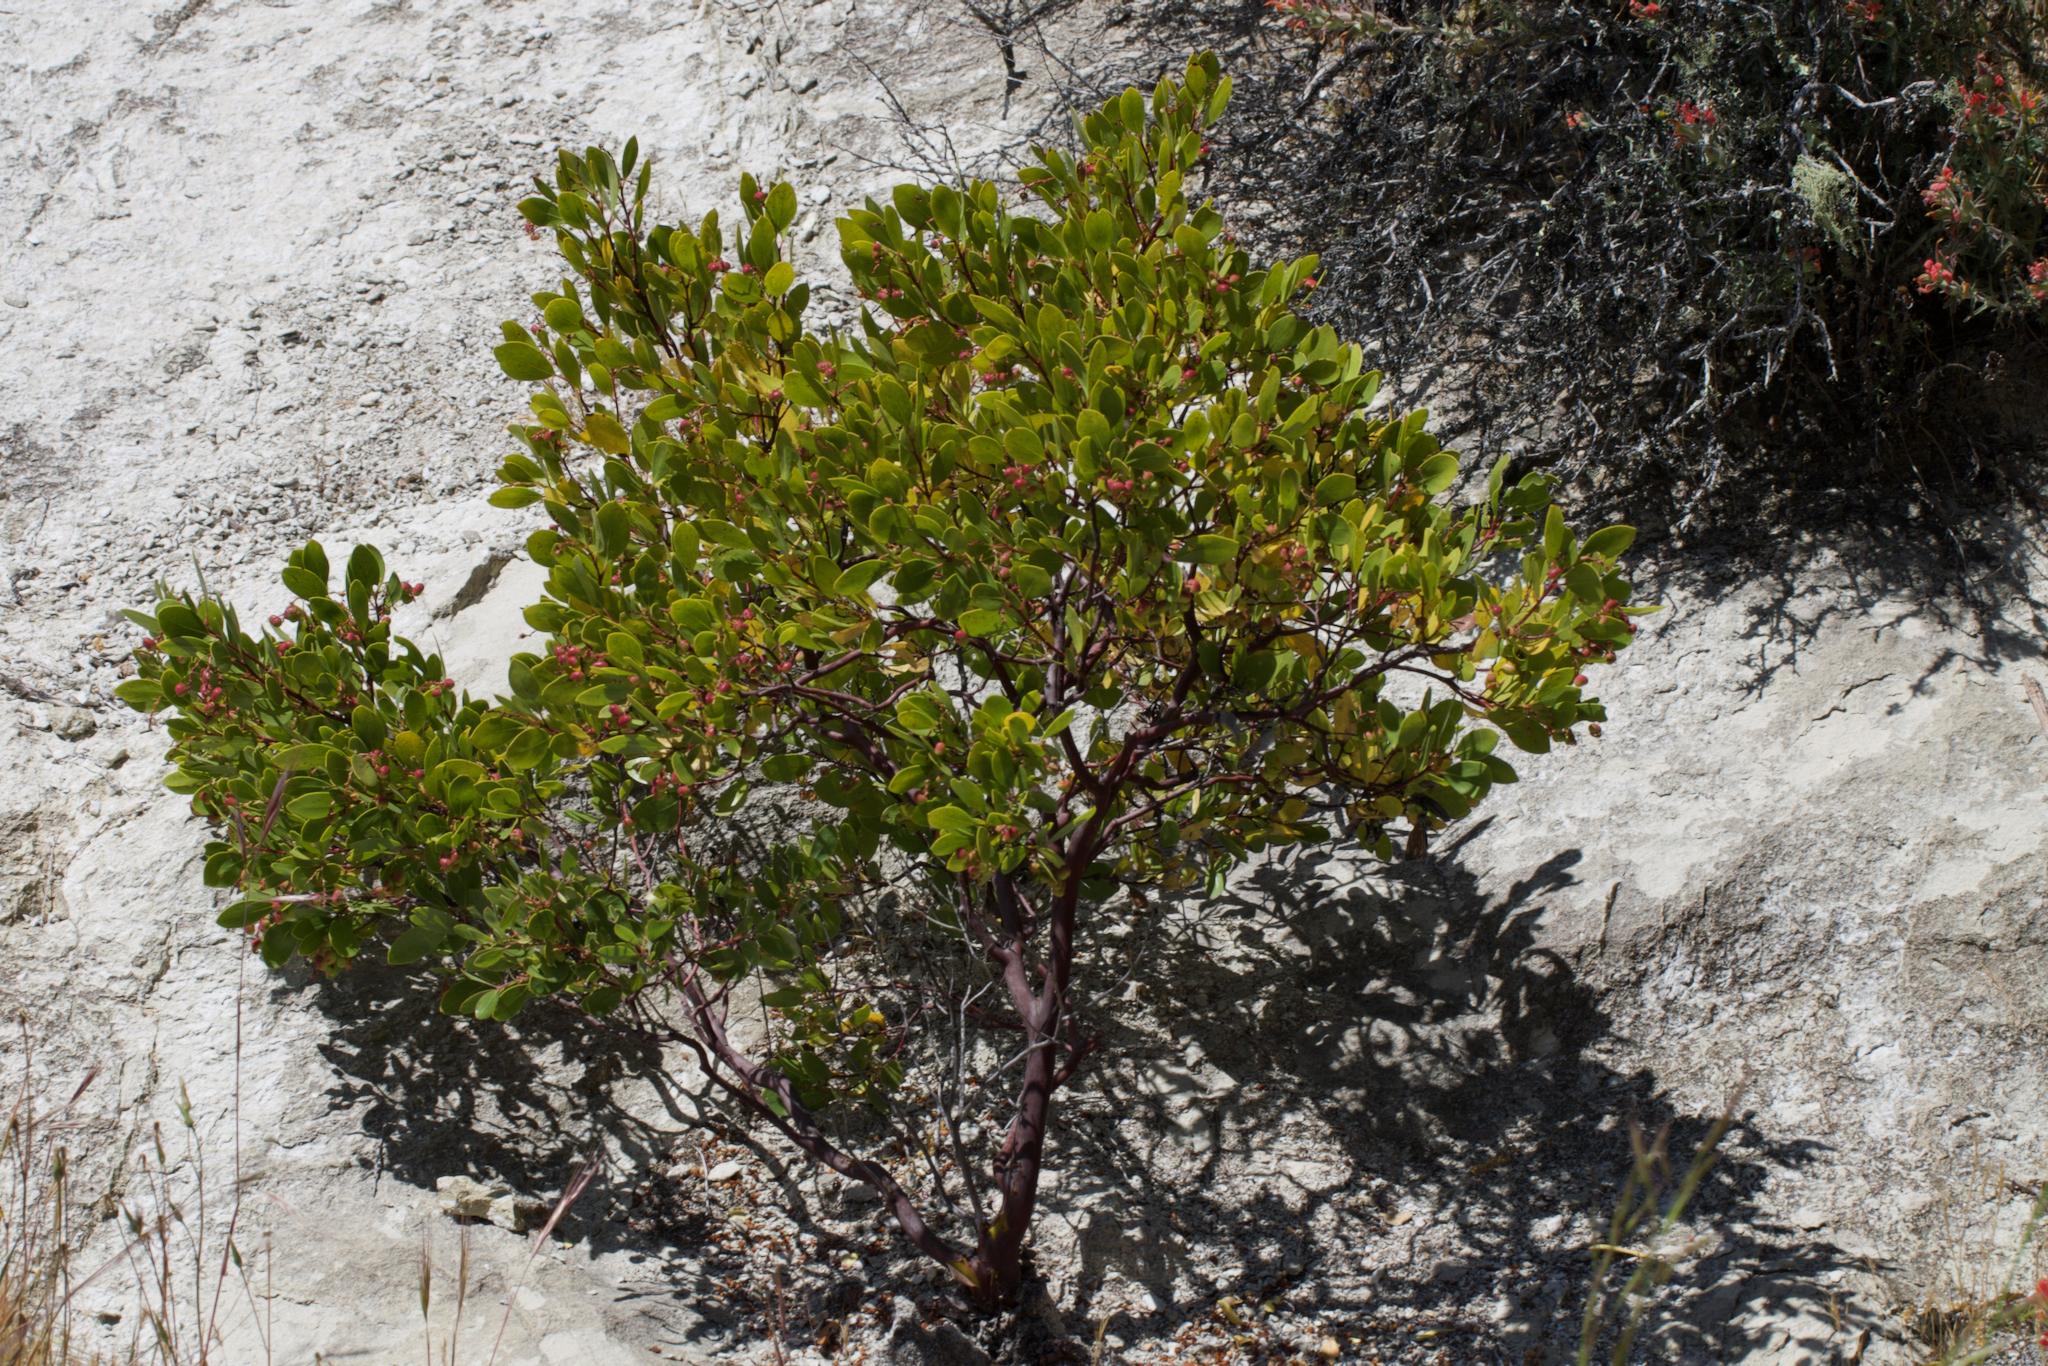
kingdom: Plantae
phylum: Tracheophyta
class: Magnoliopsida
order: Ericales
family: Ericaceae
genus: Arctostaphylos
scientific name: Arctostaphylos stanfordiana
